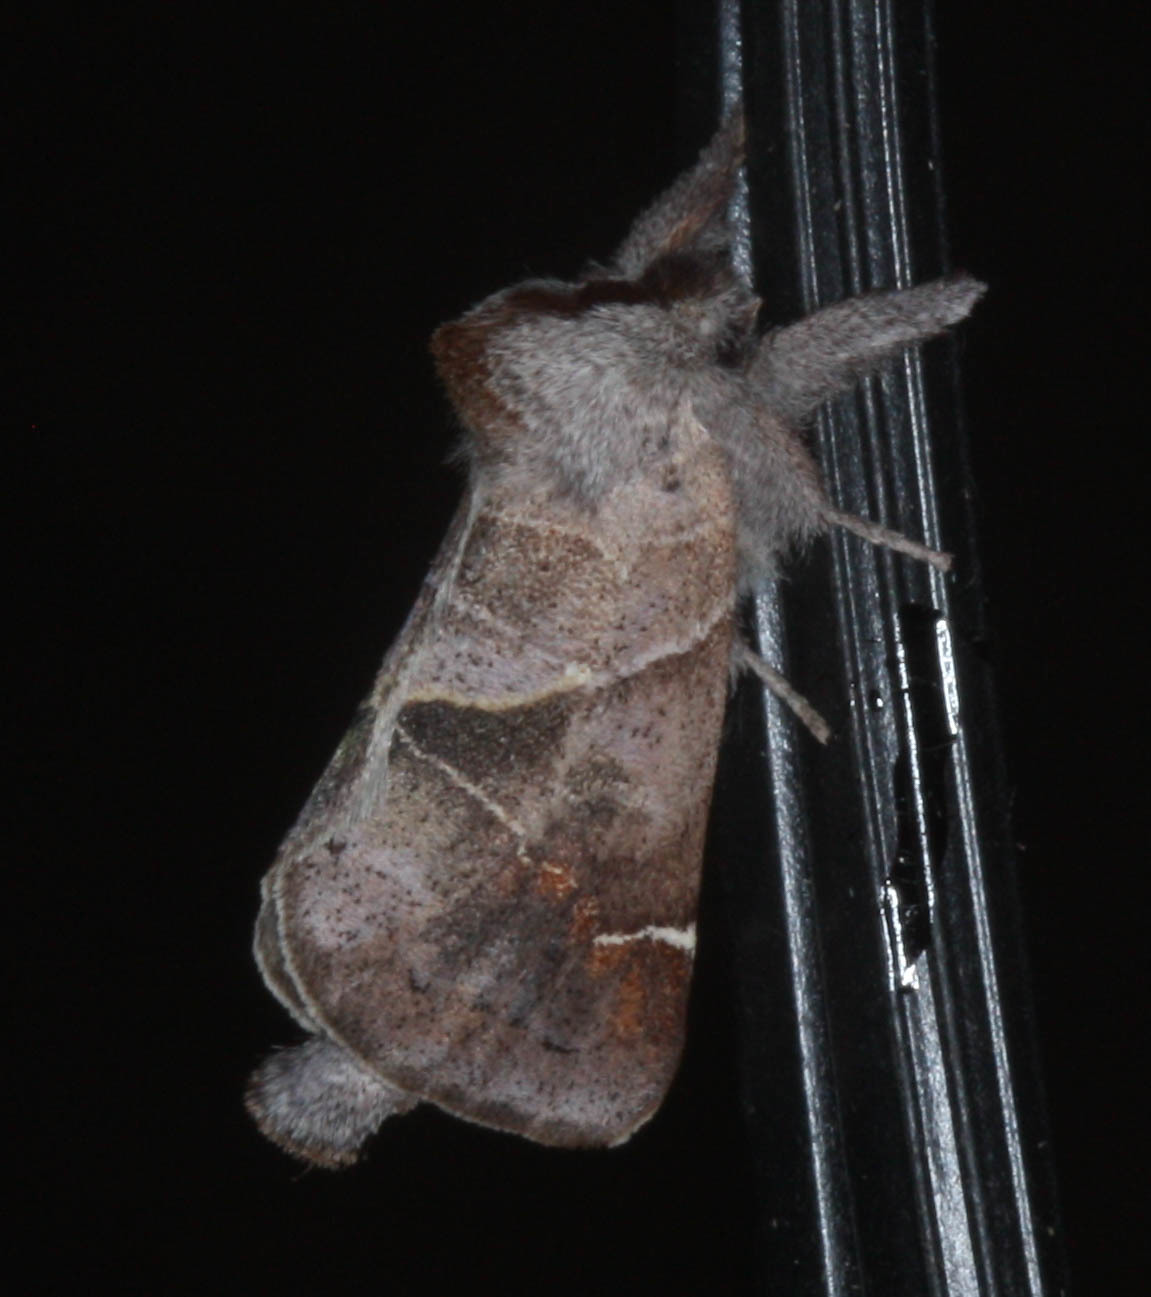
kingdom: Animalia
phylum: Arthropoda
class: Insecta
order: Lepidoptera
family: Notodontidae
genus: Clostera
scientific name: Clostera apicalis
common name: Apical prominent
